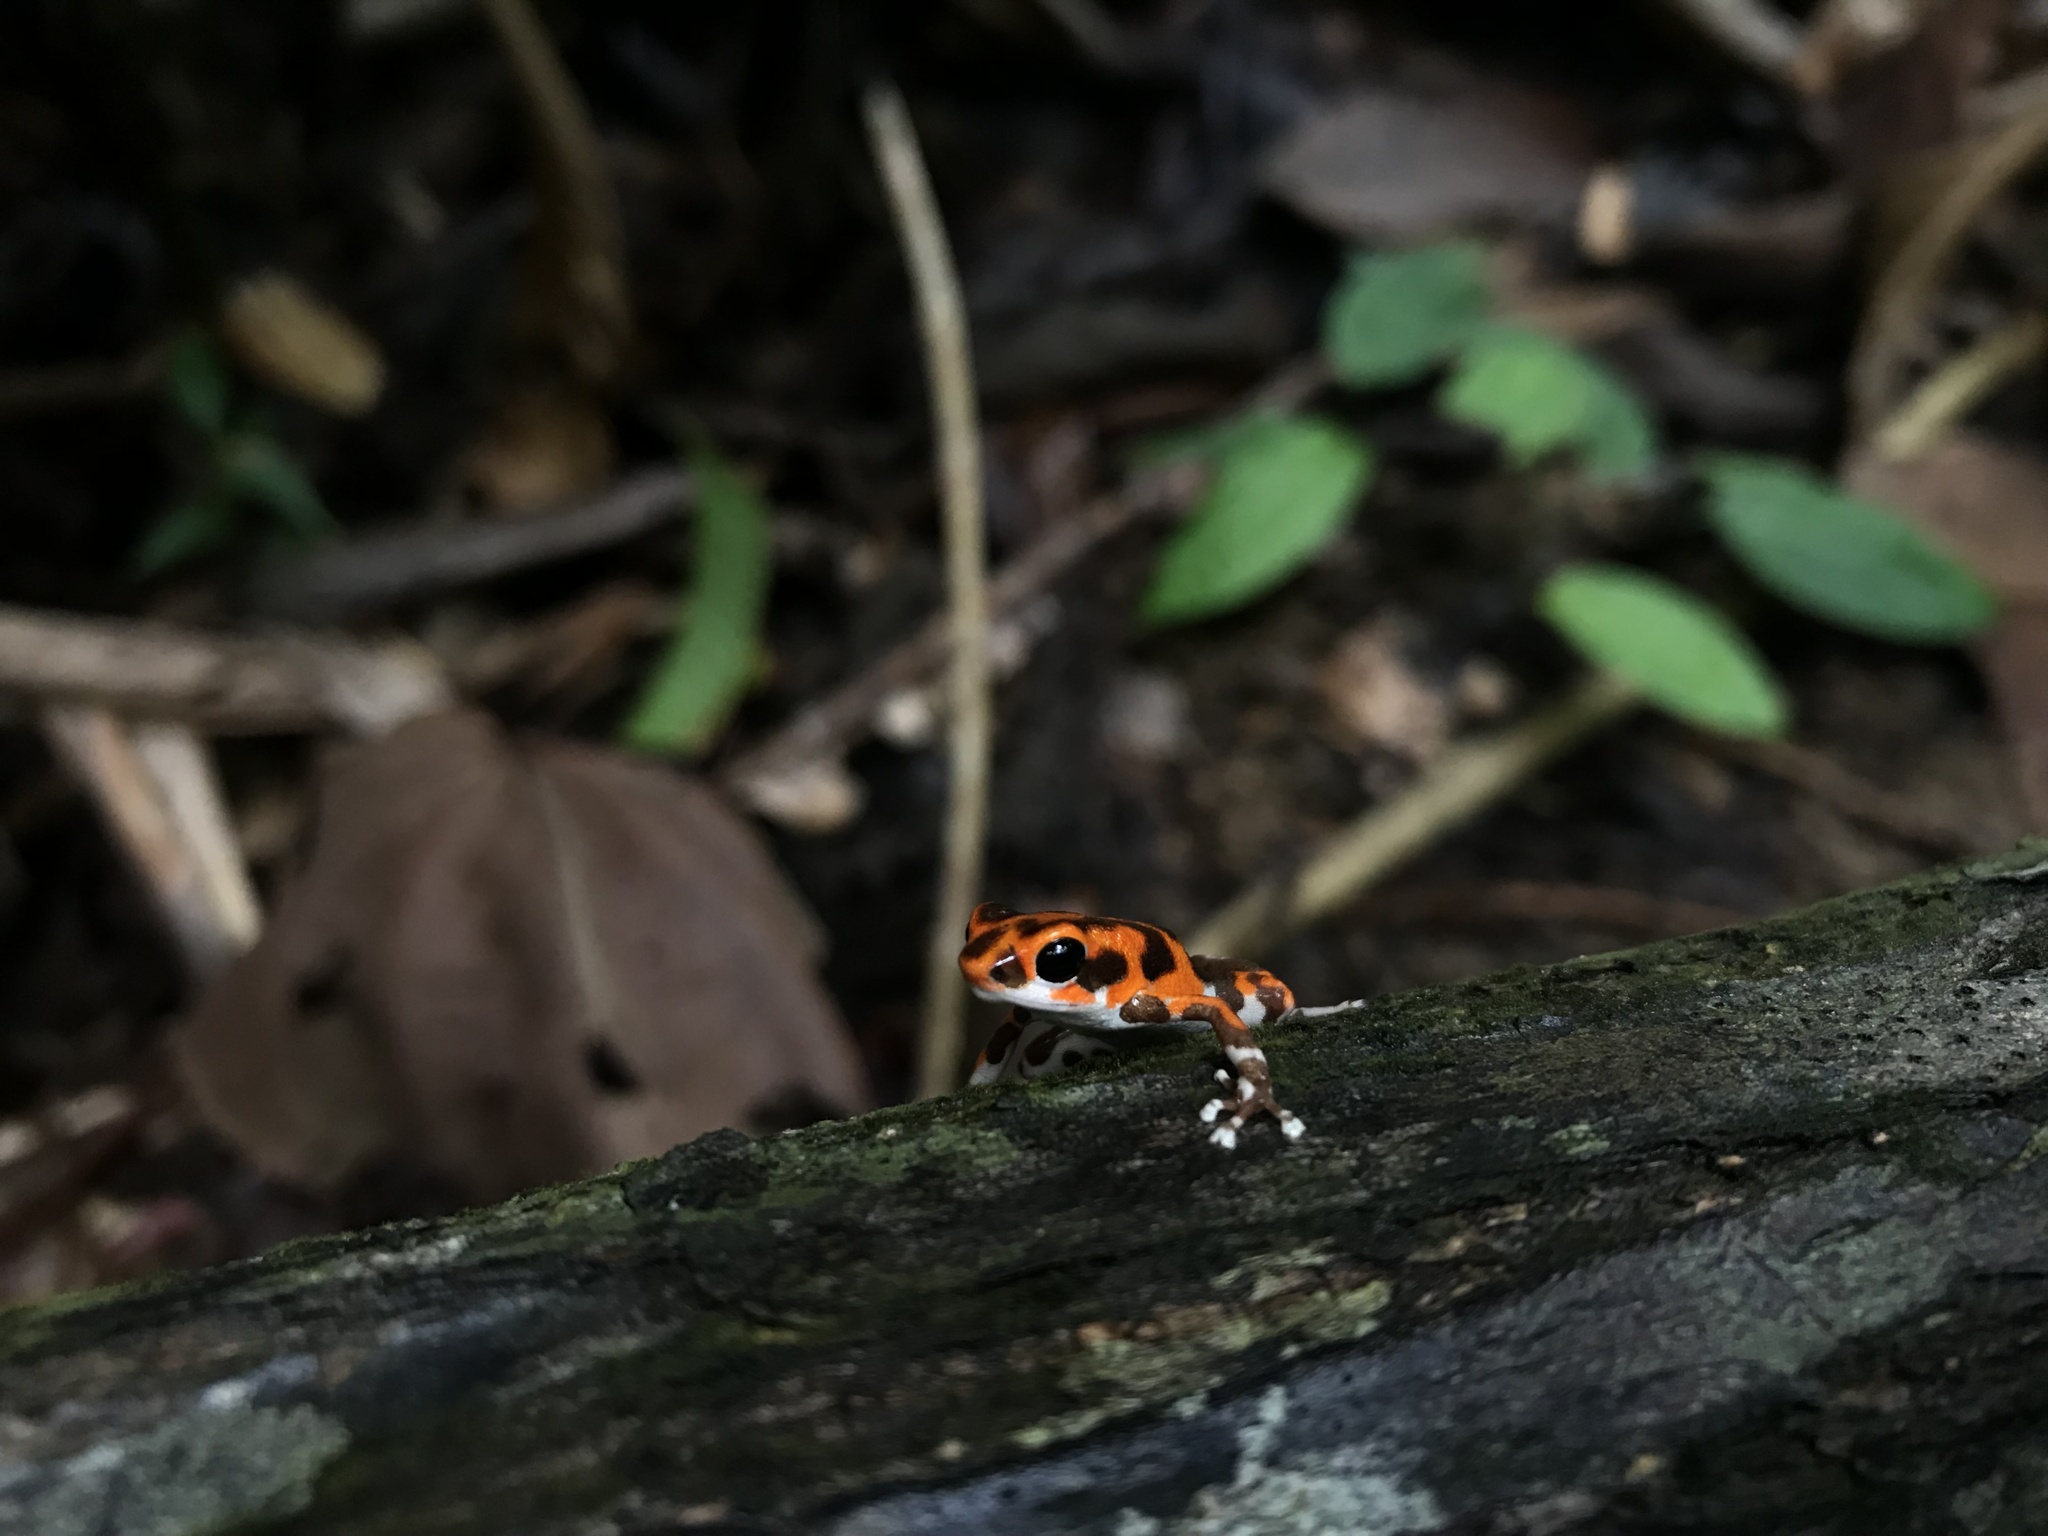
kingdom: Animalia
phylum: Chordata
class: Amphibia
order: Anura
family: Dendrobatidae
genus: Oophaga
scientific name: Oophaga pumilio
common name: Flaming poison frog
